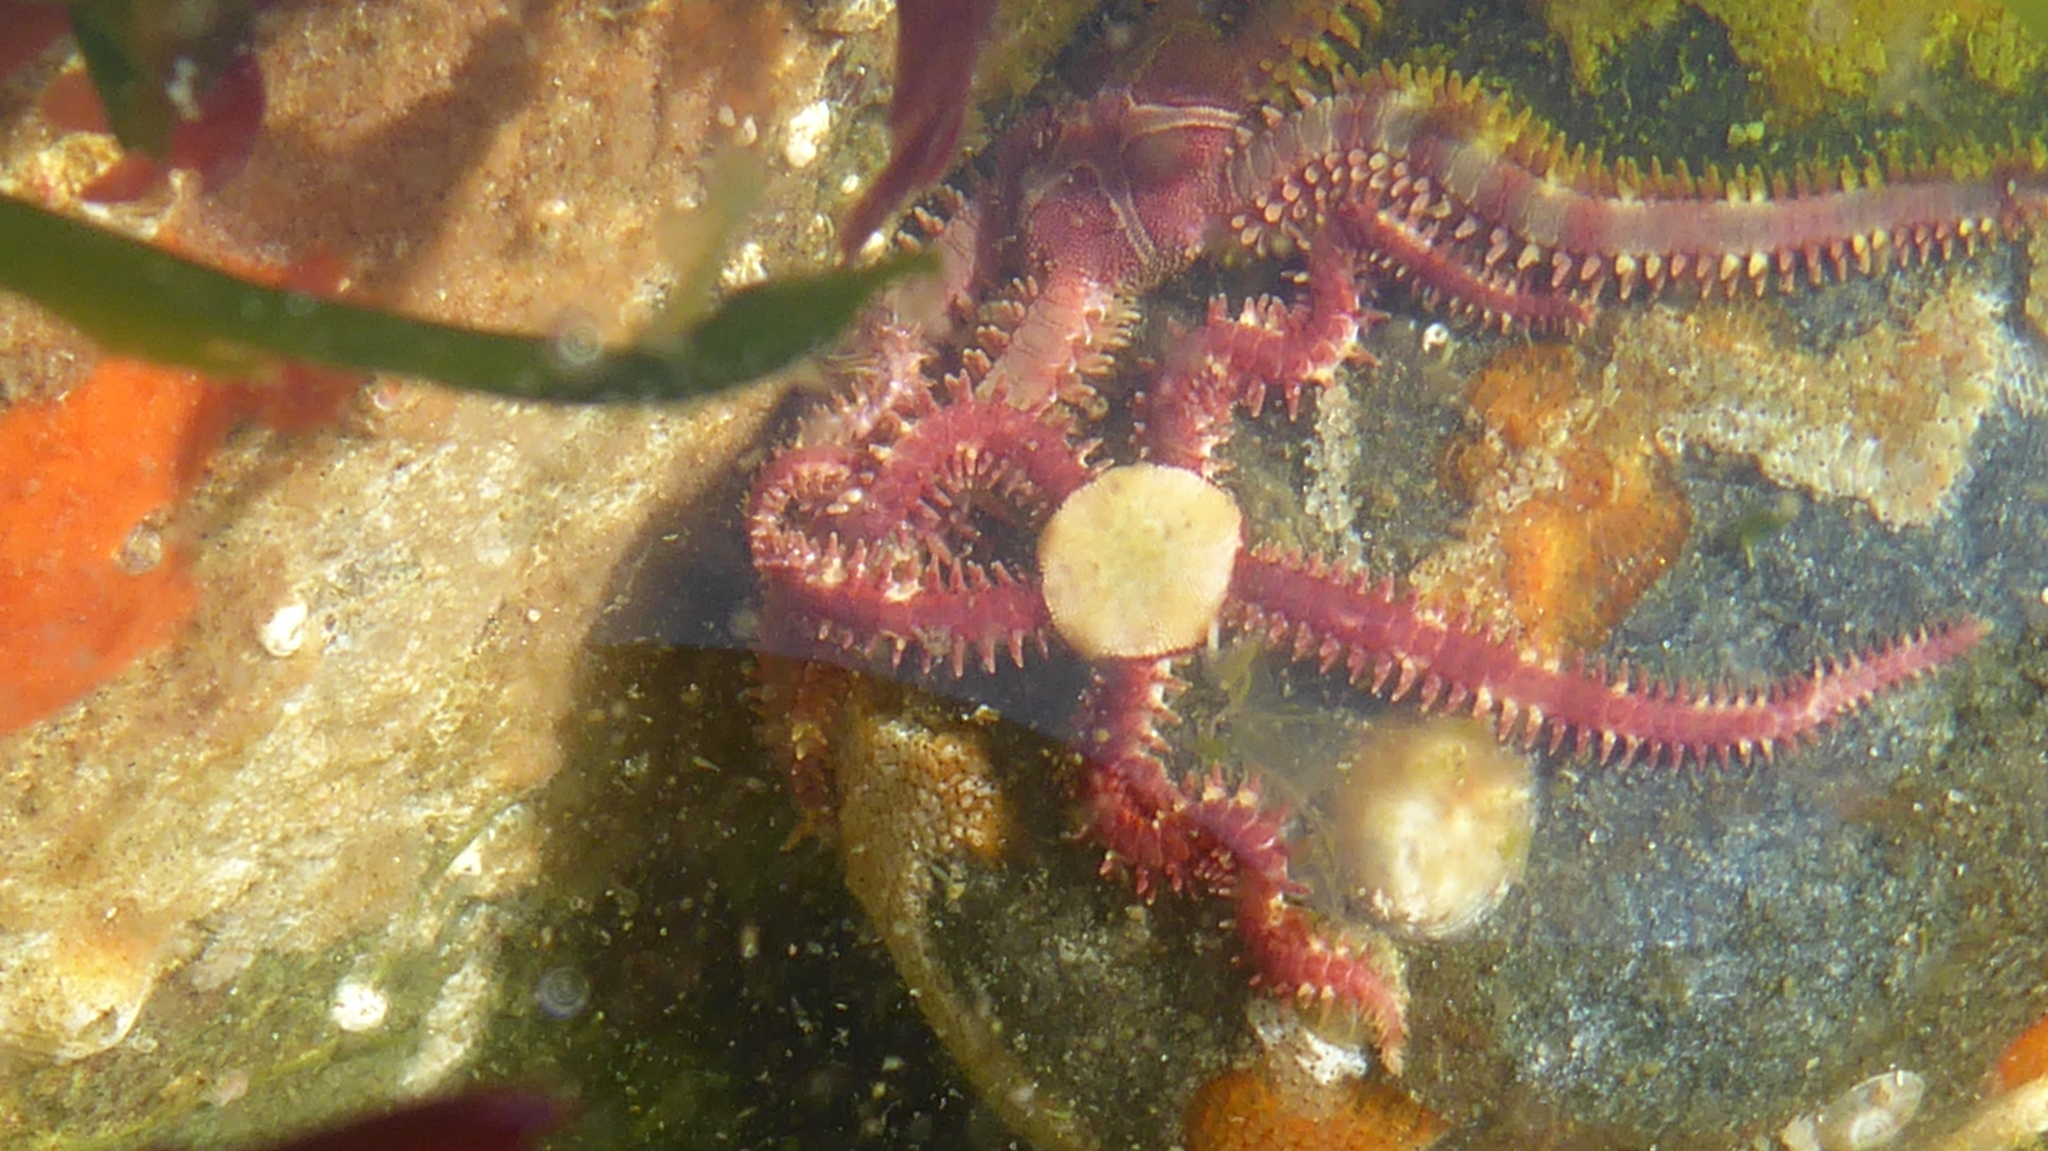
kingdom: Animalia
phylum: Echinodermata
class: Ophiuroidea
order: Amphilepidida
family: Ophiopholidae
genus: Ophiopholis
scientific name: Ophiopholis aculeata
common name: Crevice brittlestar
